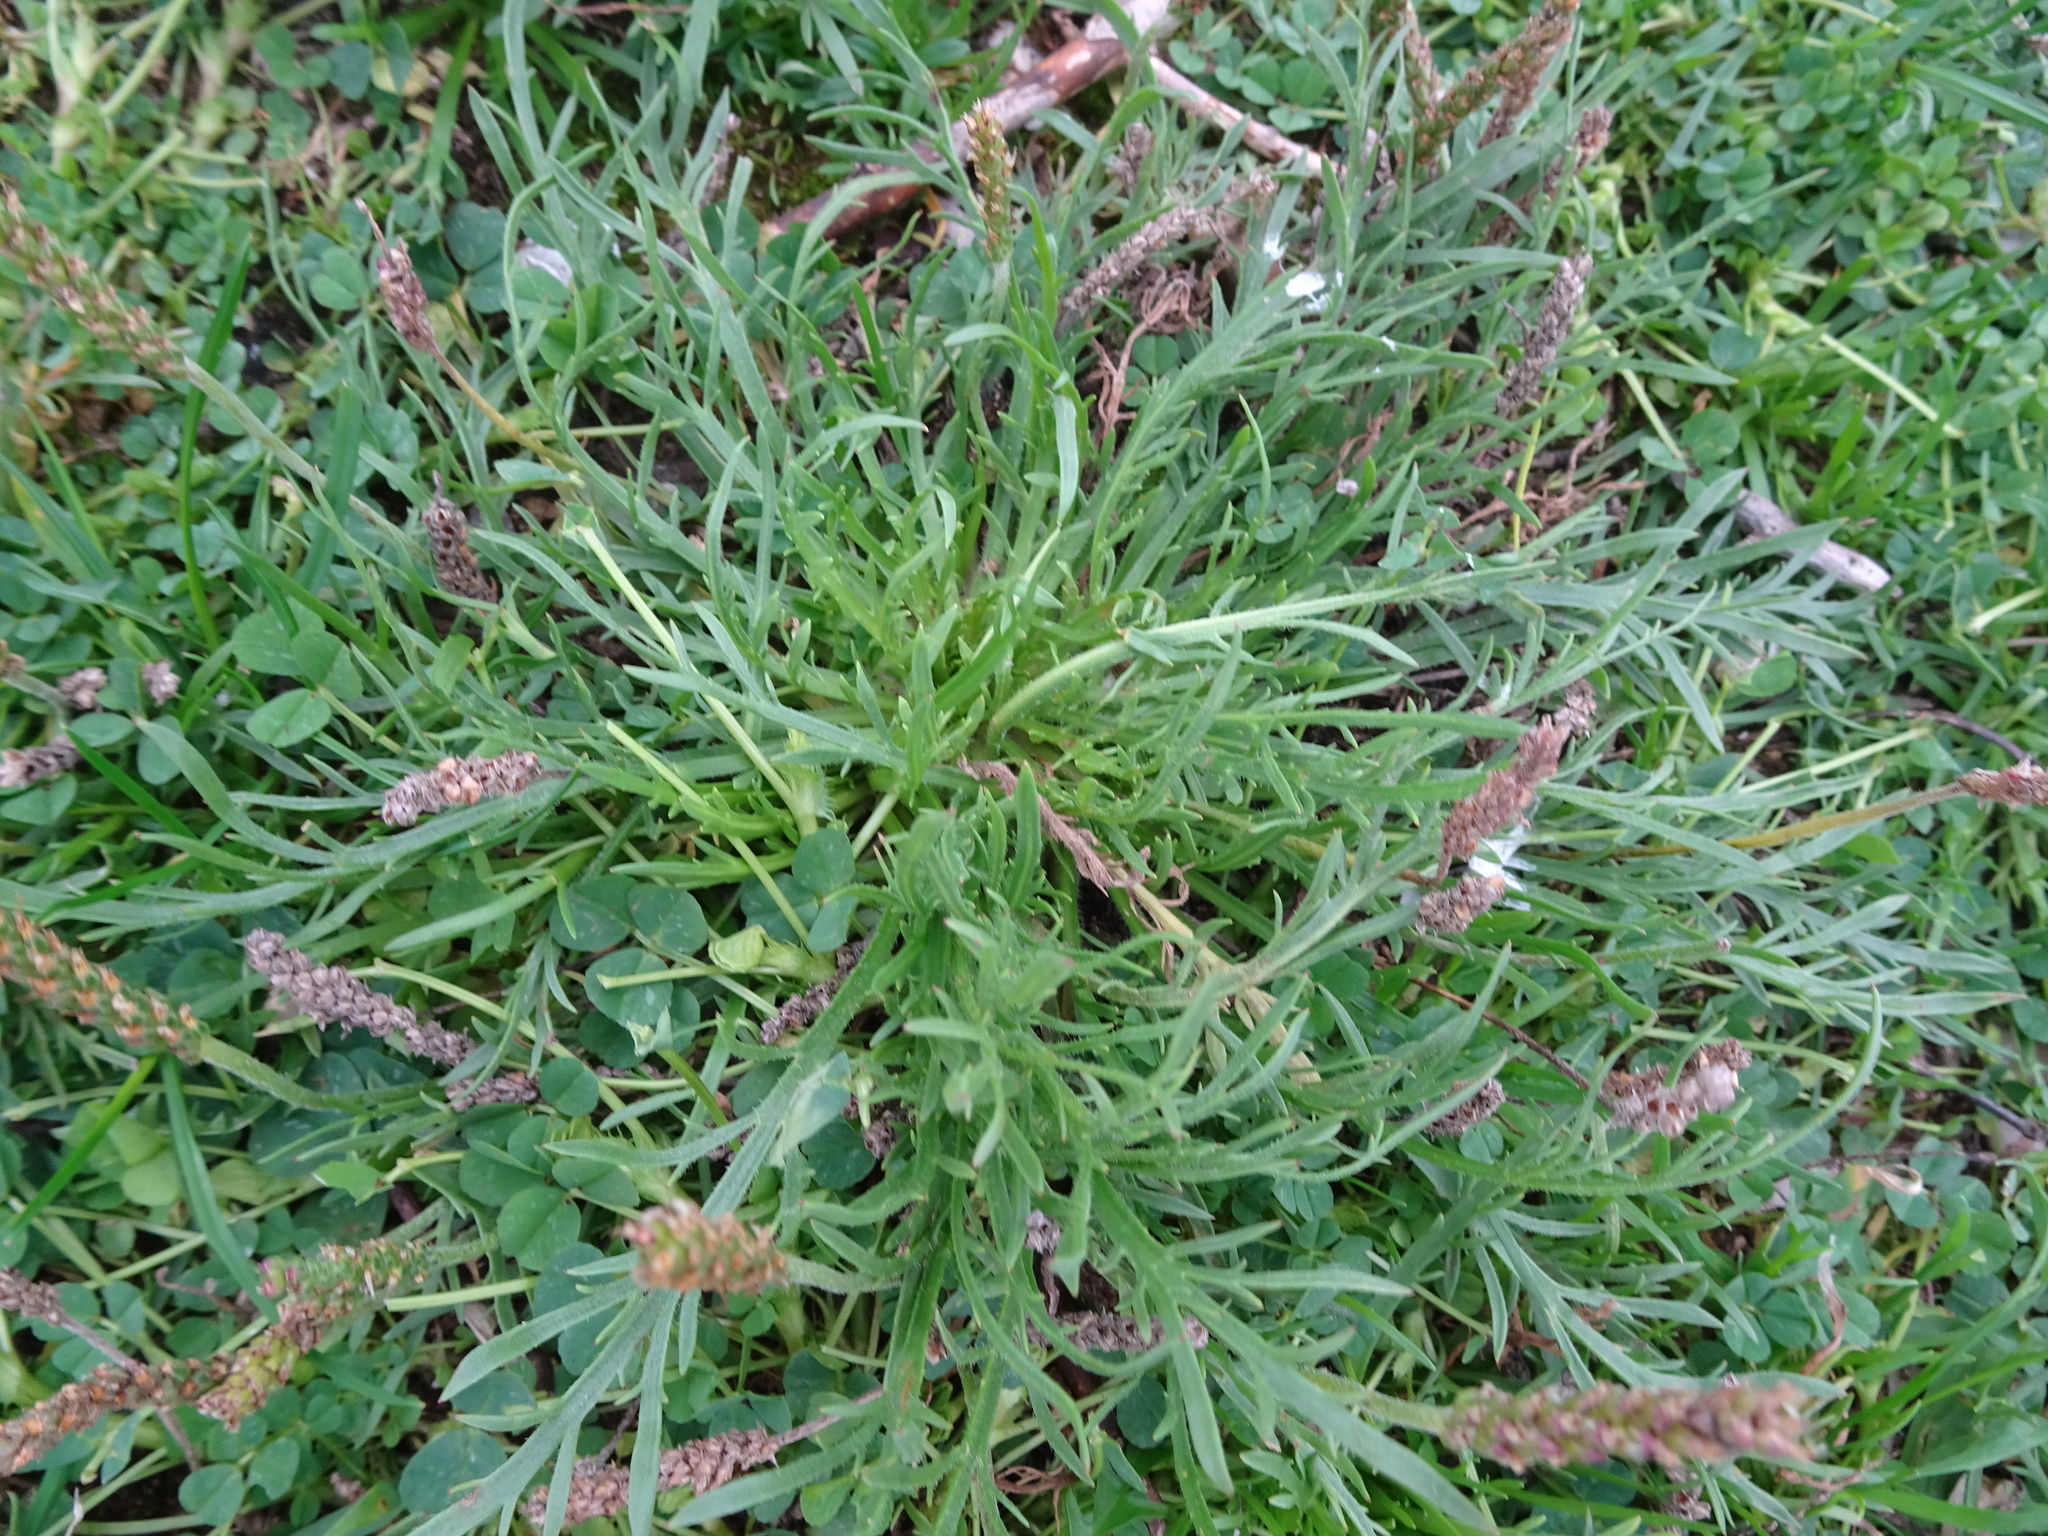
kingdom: Plantae
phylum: Tracheophyta
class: Magnoliopsida
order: Lamiales
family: Plantaginaceae
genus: Plantago
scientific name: Plantago coronopus
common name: Buck's-horn plantain
